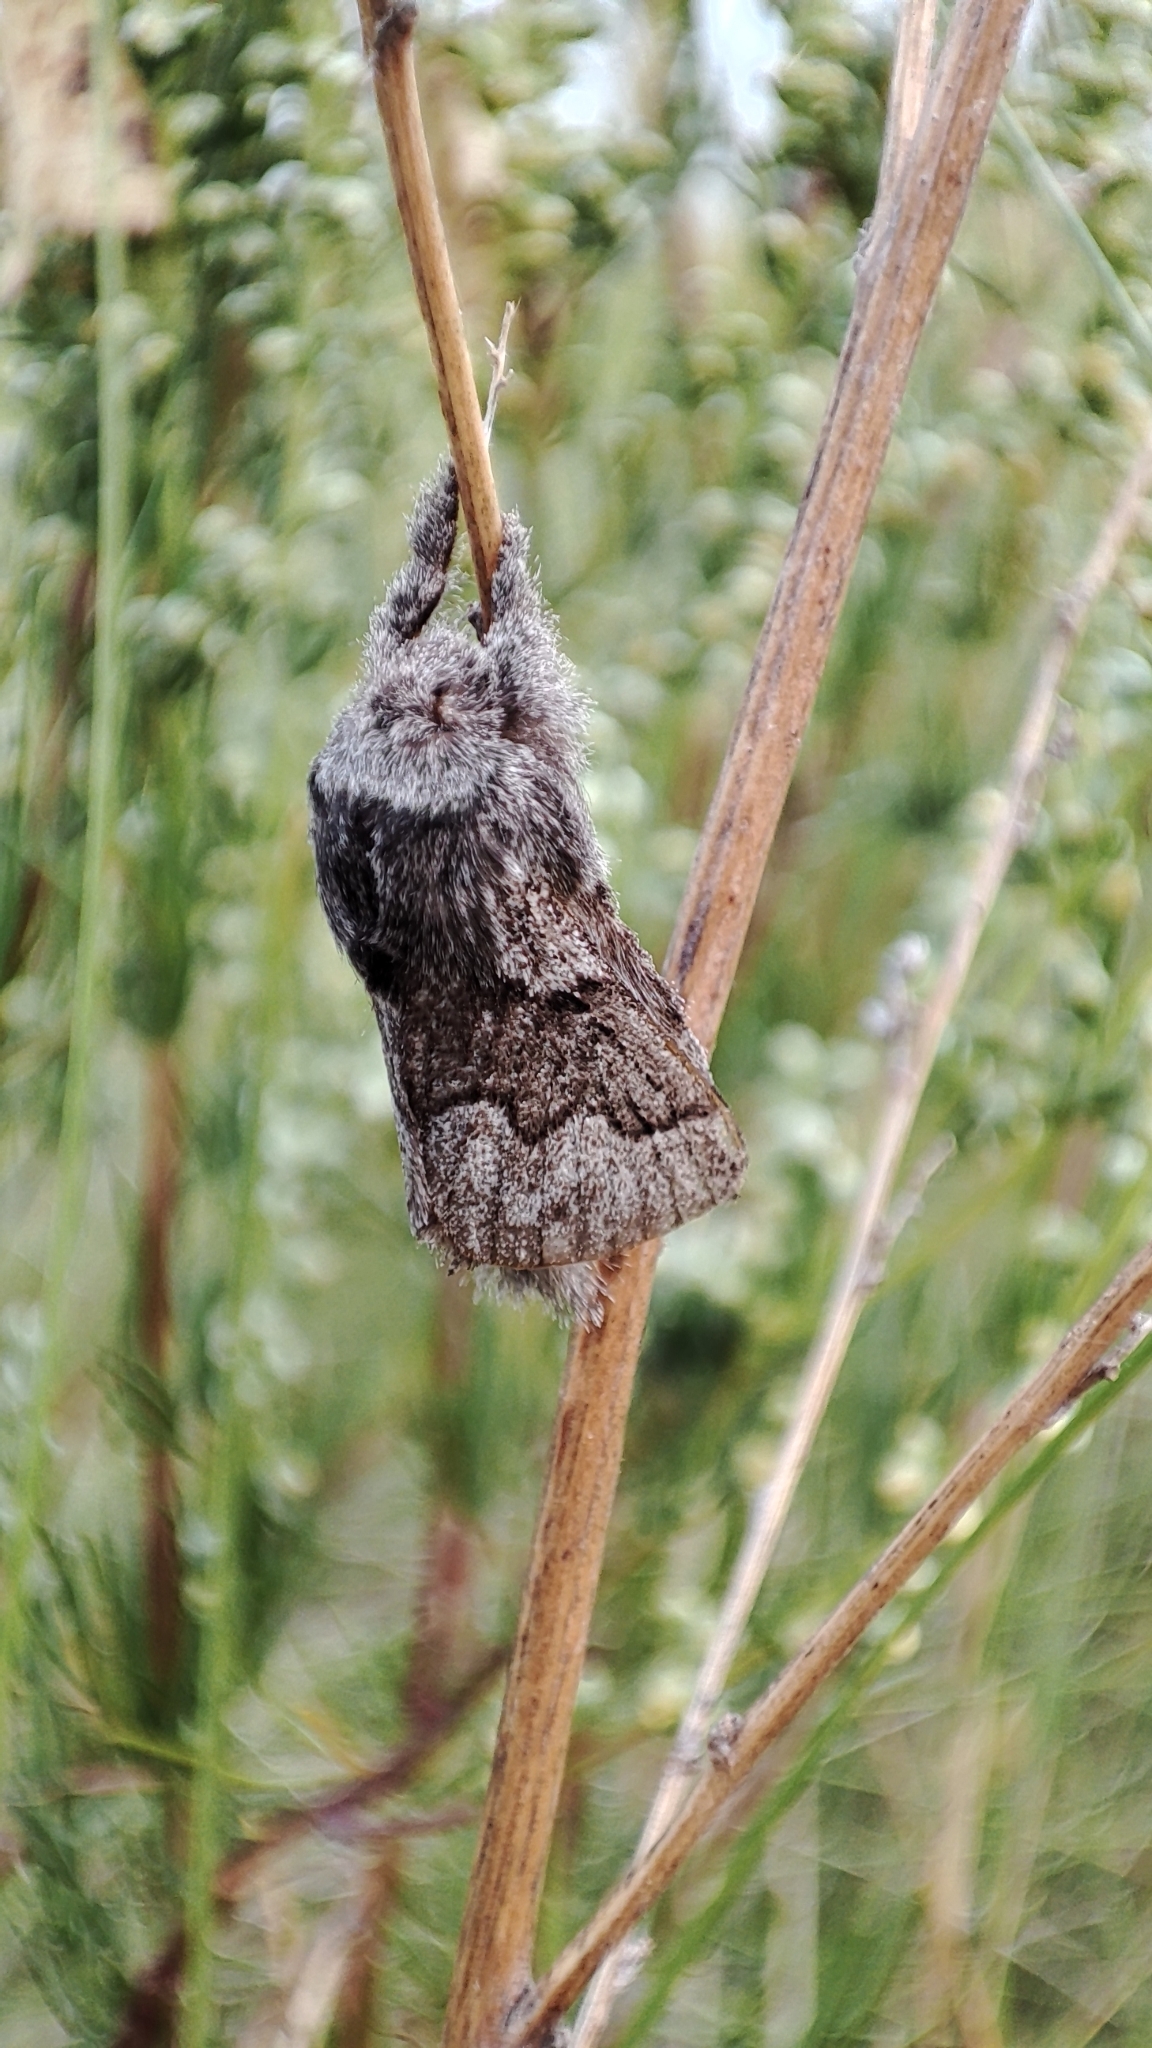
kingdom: Animalia
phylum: Arthropoda
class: Insecta
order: Lepidoptera
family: Lasiocampidae
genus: Trichiura
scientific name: Trichiura crataegi
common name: Pale eggar
